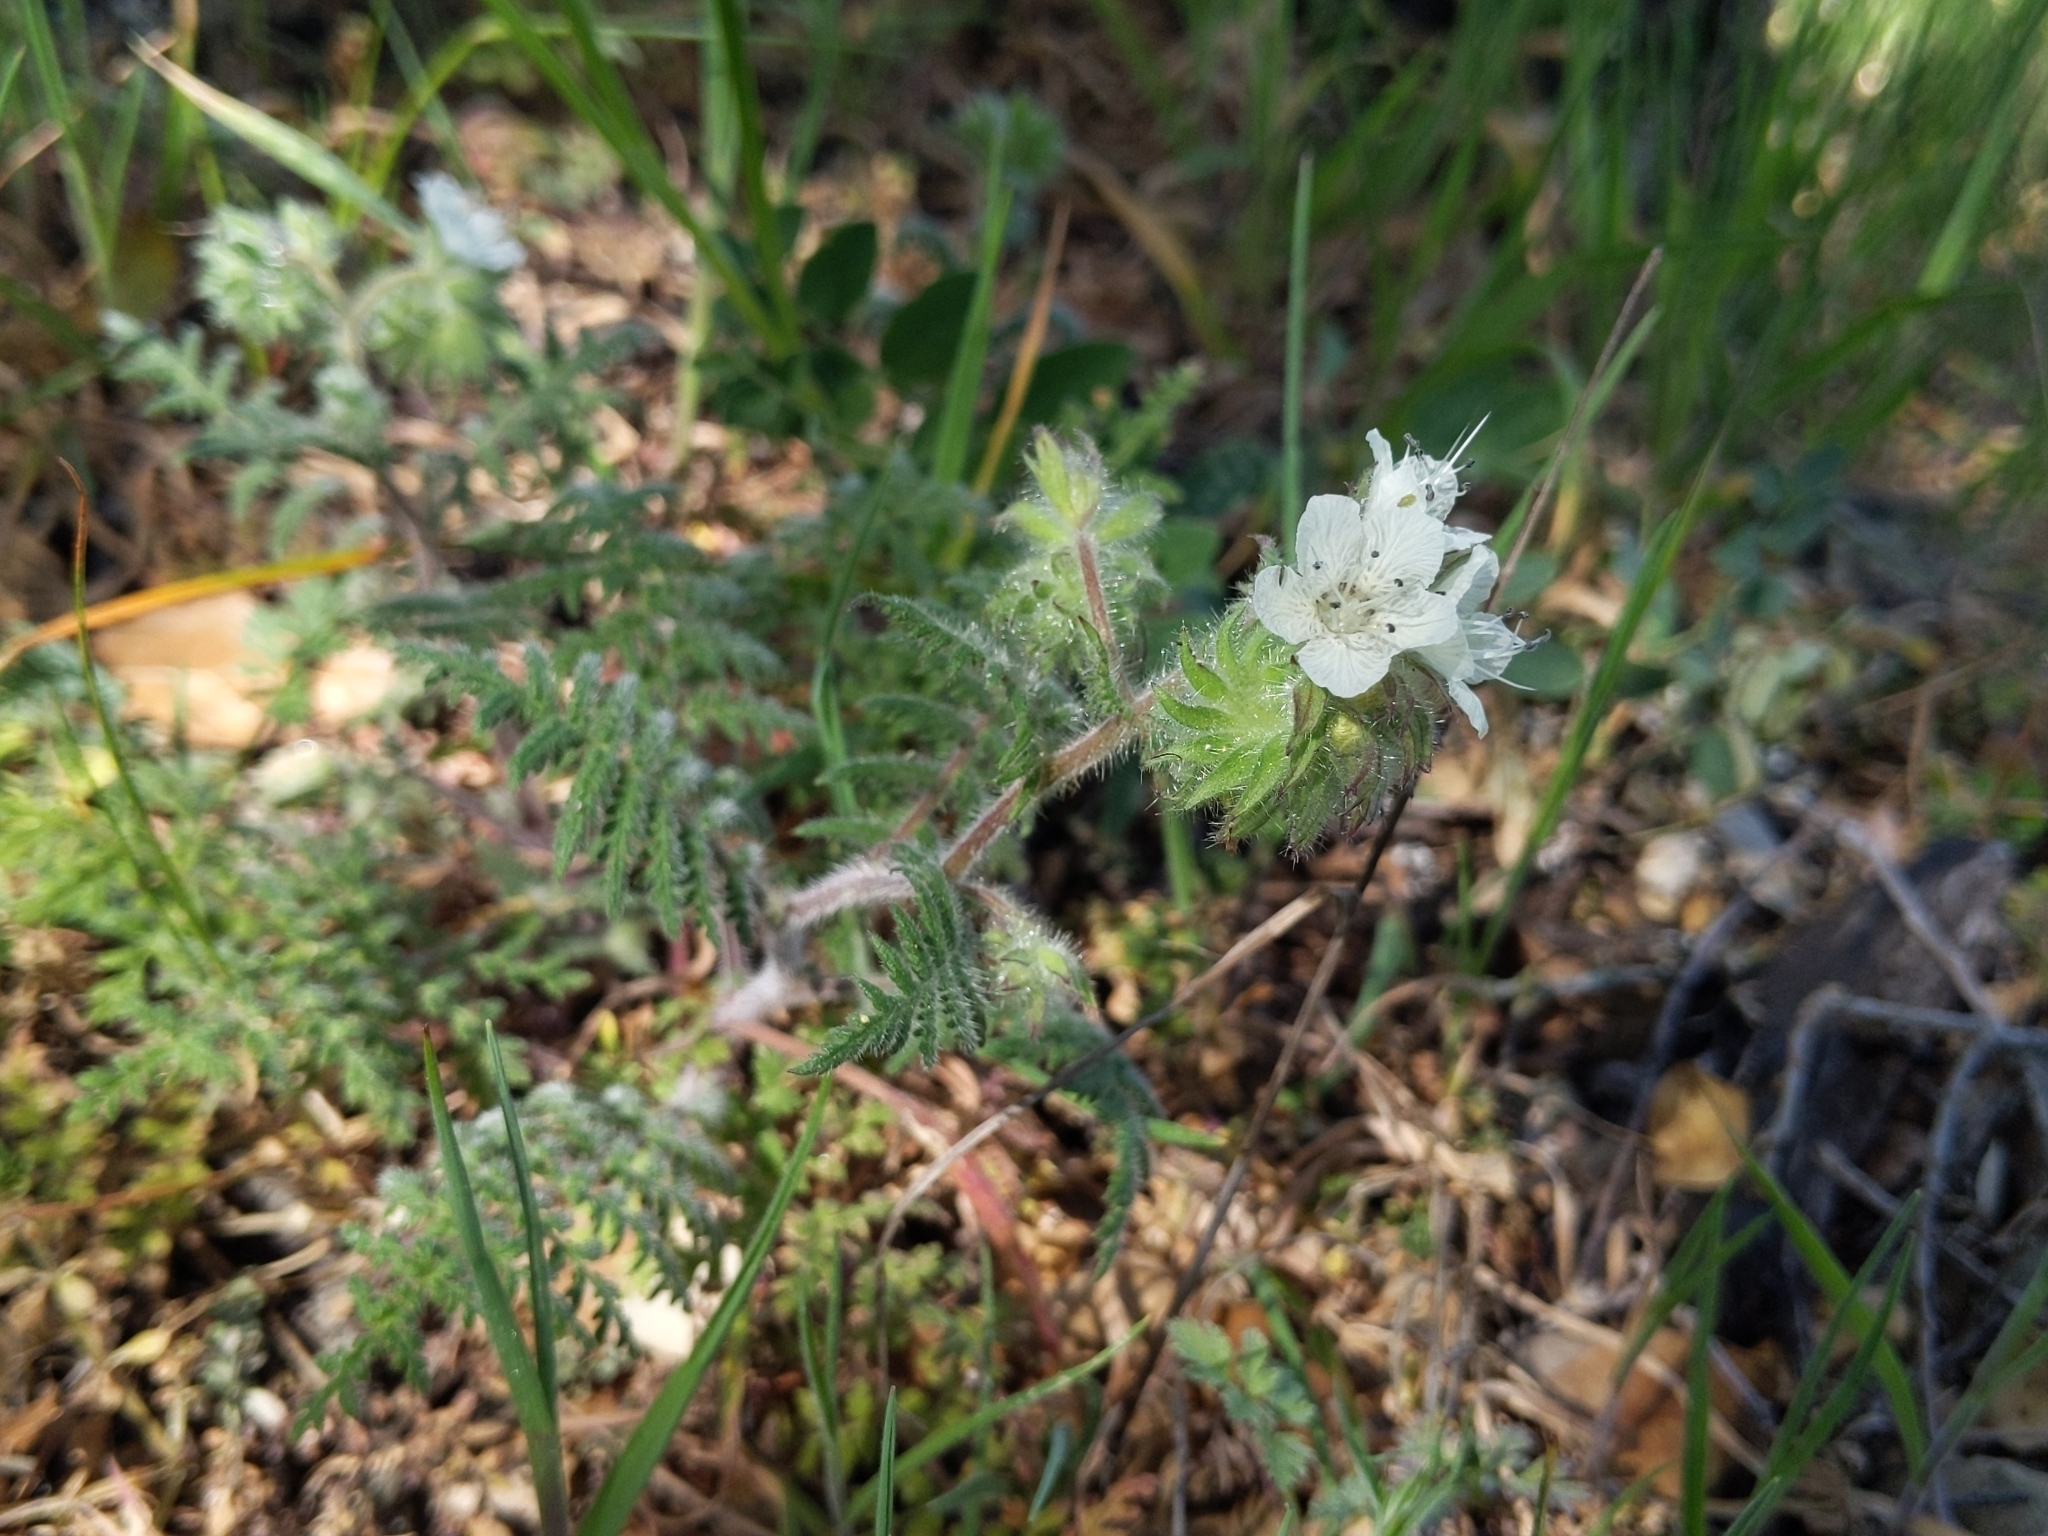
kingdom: Plantae
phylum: Tracheophyta
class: Magnoliopsida
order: Boraginales
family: Hydrophyllaceae
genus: Phacelia
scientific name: Phacelia distans
